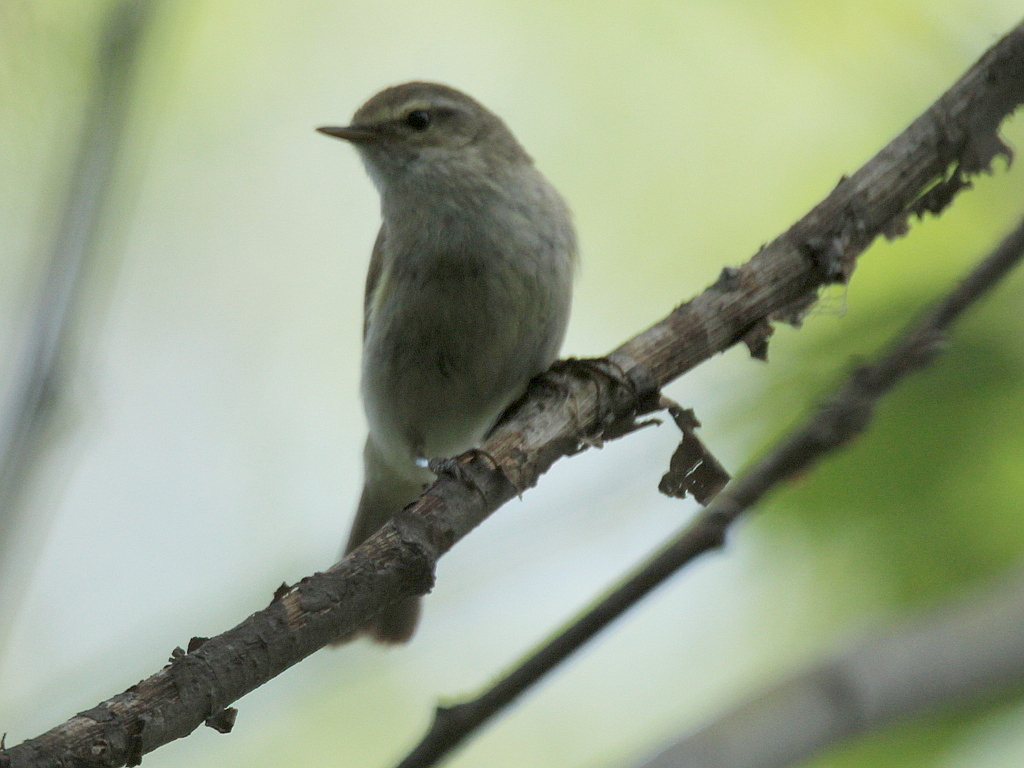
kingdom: Animalia
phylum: Chordata
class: Aves
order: Passeriformes
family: Phylloscopidae
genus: Phylloscopus
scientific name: Phylloscopus collybita
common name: Common chiffchaff
